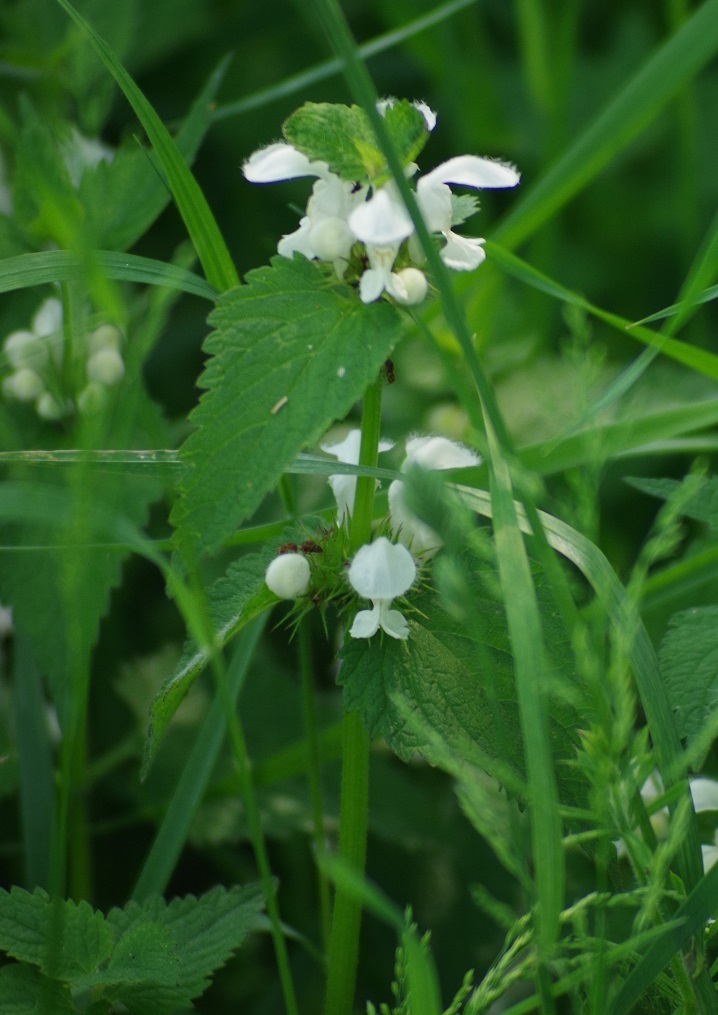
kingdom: Plantae
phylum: Tracheophyta
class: Magnoliopsida
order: Lamiales
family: Lamiaceae
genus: Lamium
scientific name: Lamium album
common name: White dead-nettle
